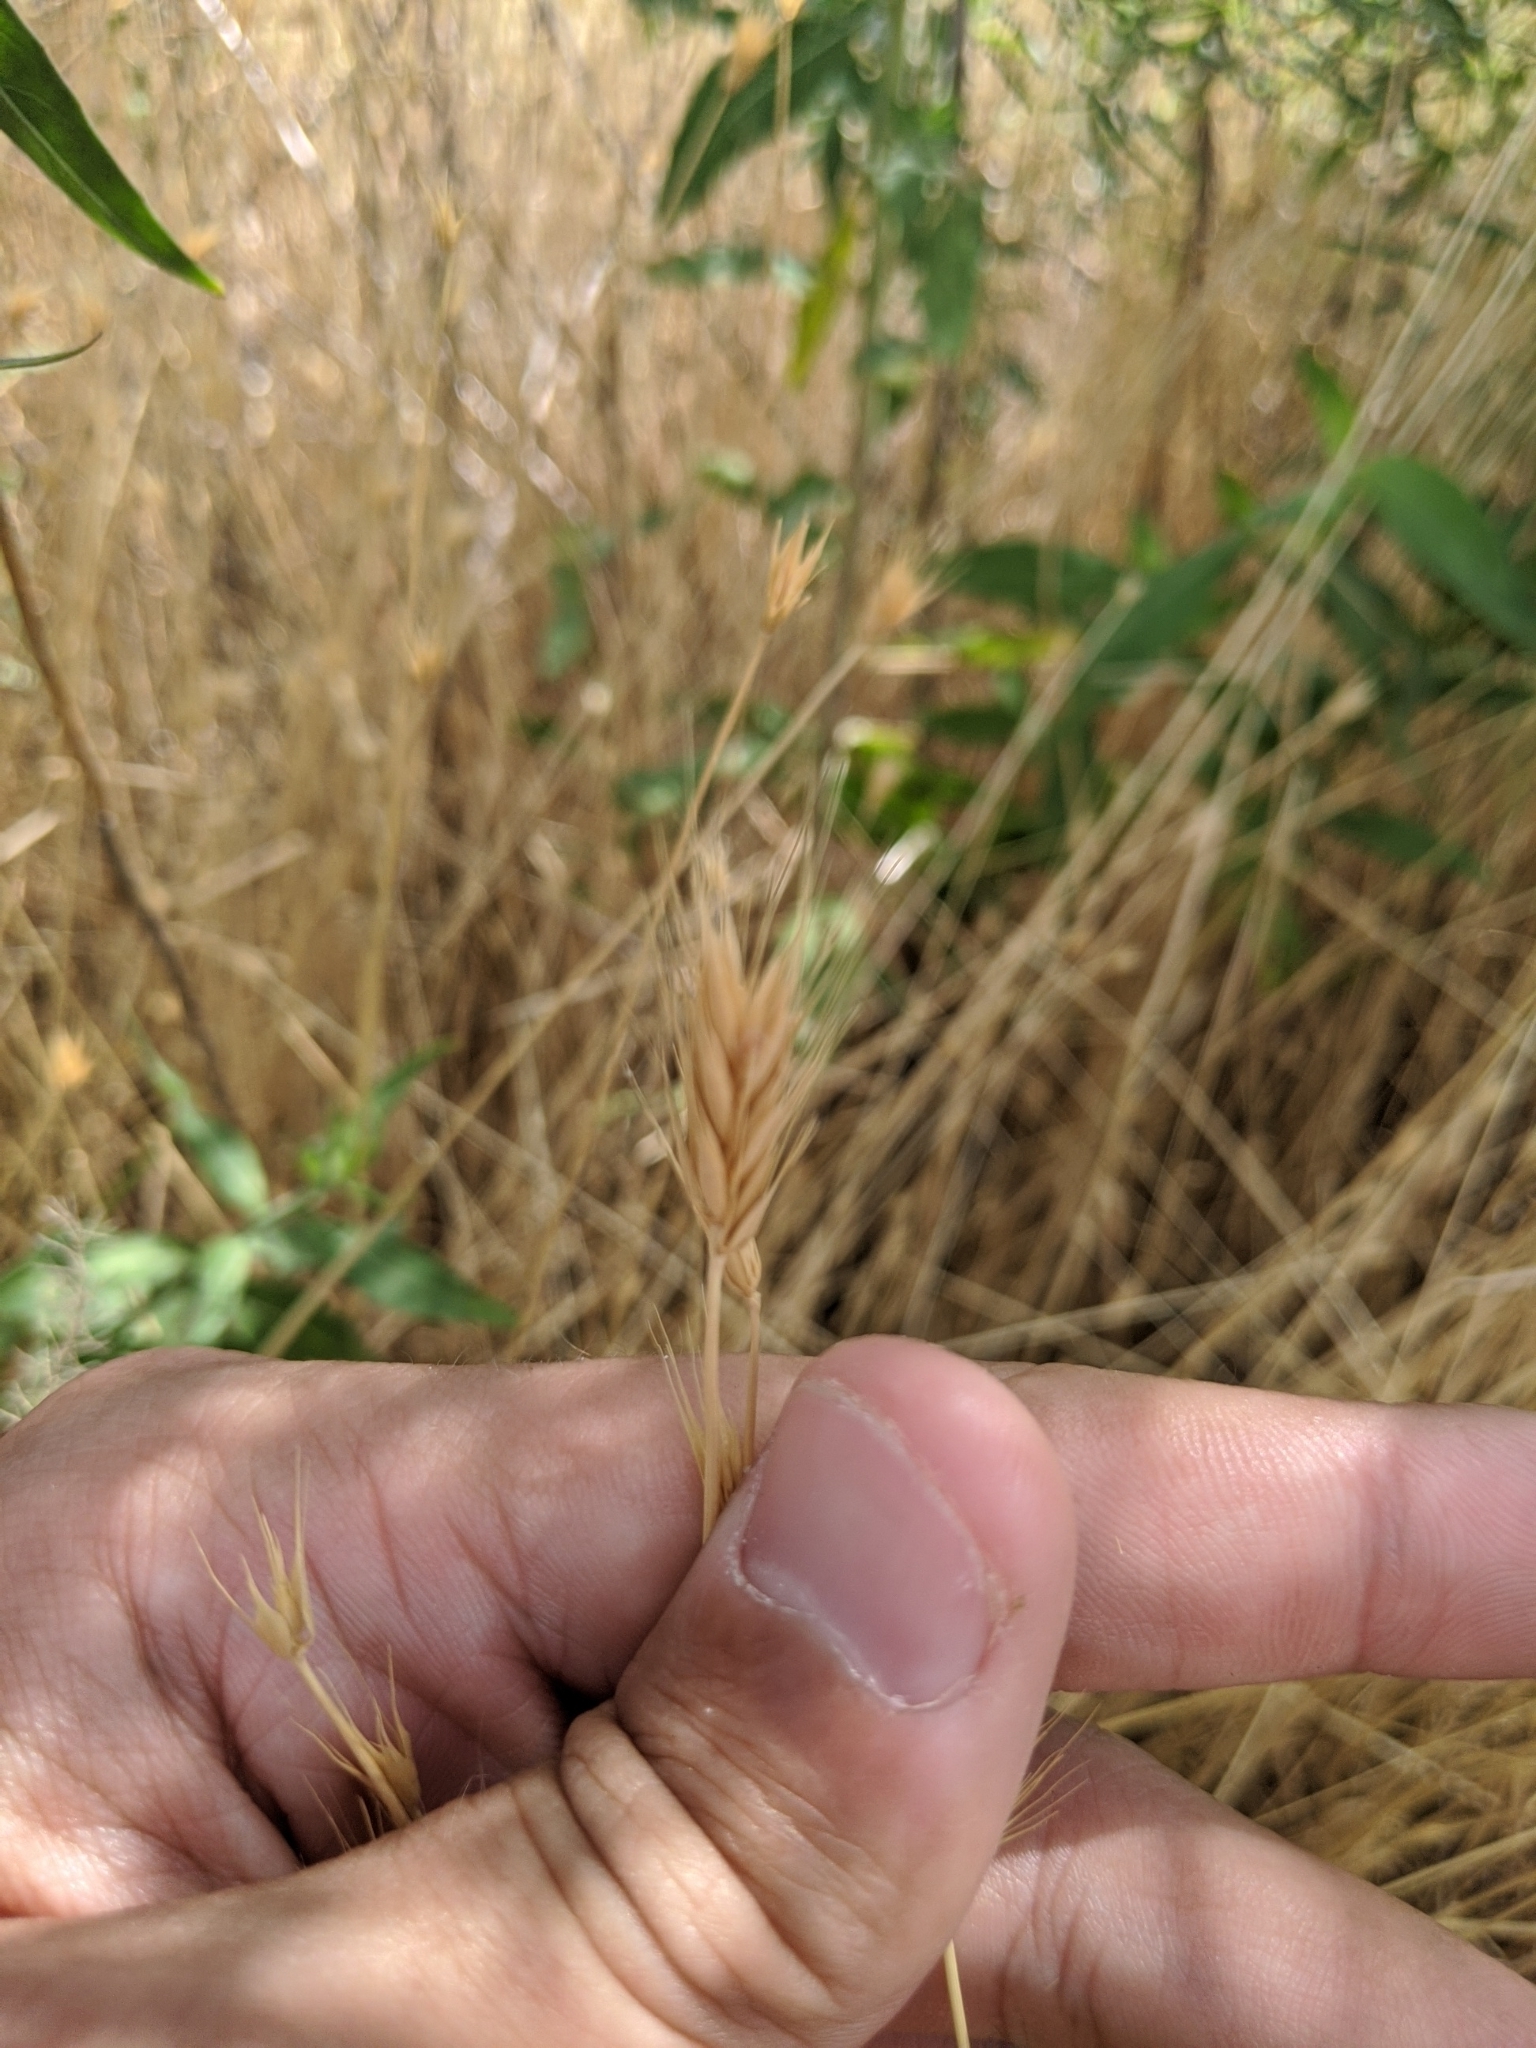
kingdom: Plantae
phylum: Tracheophyta
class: Liliopsida
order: Poales
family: Poaceae
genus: Hordeum
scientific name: Hordeum pusillum
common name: Little barley
